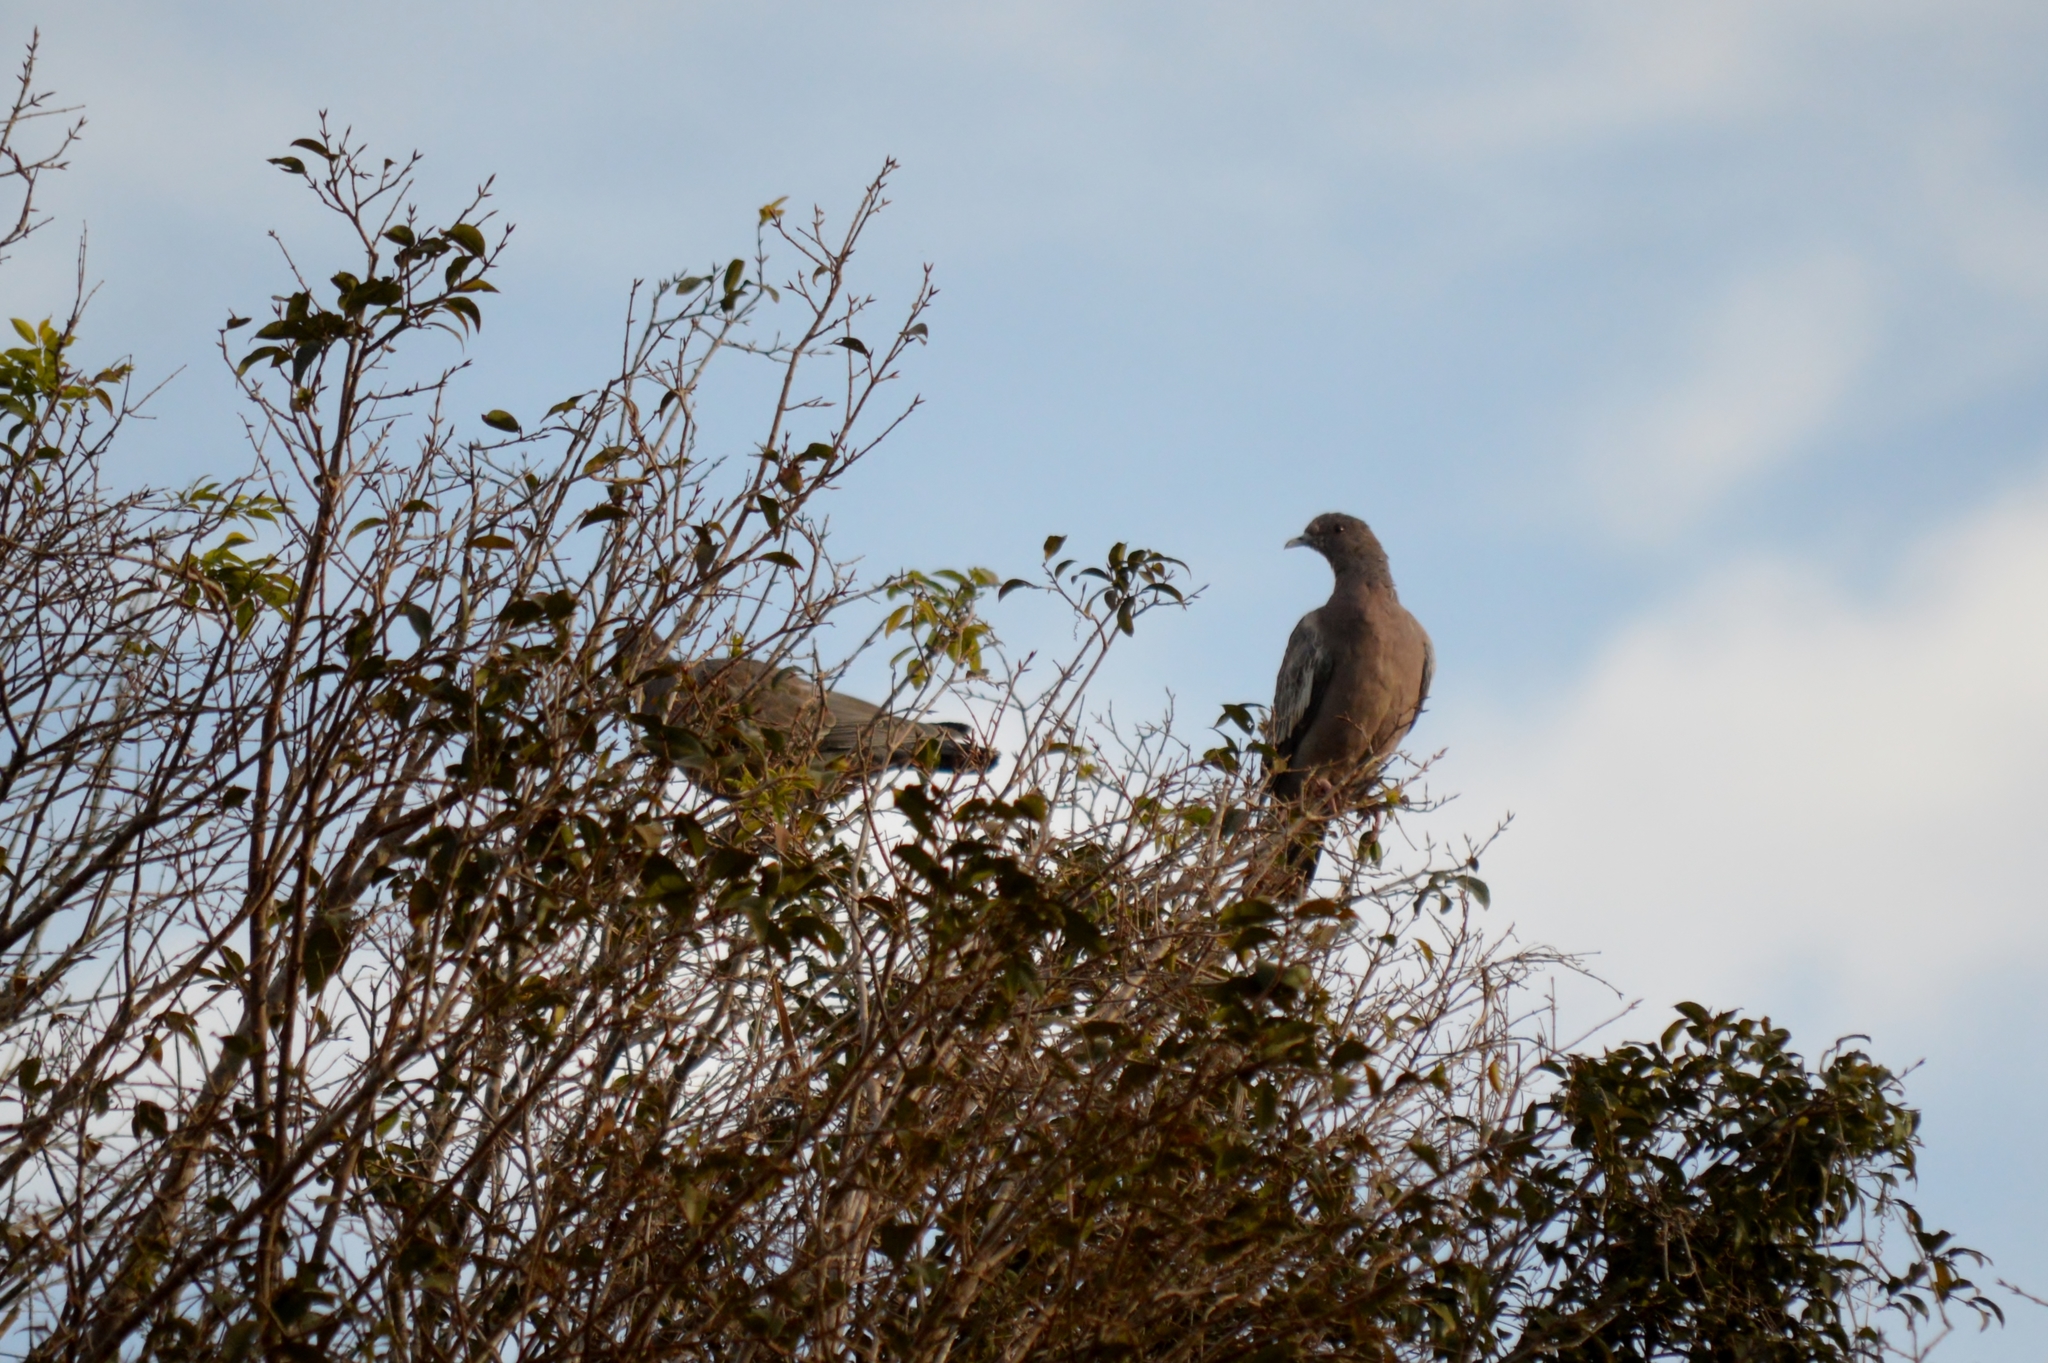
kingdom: Animalia
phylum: Chordata
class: Aves
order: Columbiformes
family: Columbidae
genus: Patagioenas
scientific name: Patagioenas picazuro
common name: Picazuro pigeon
